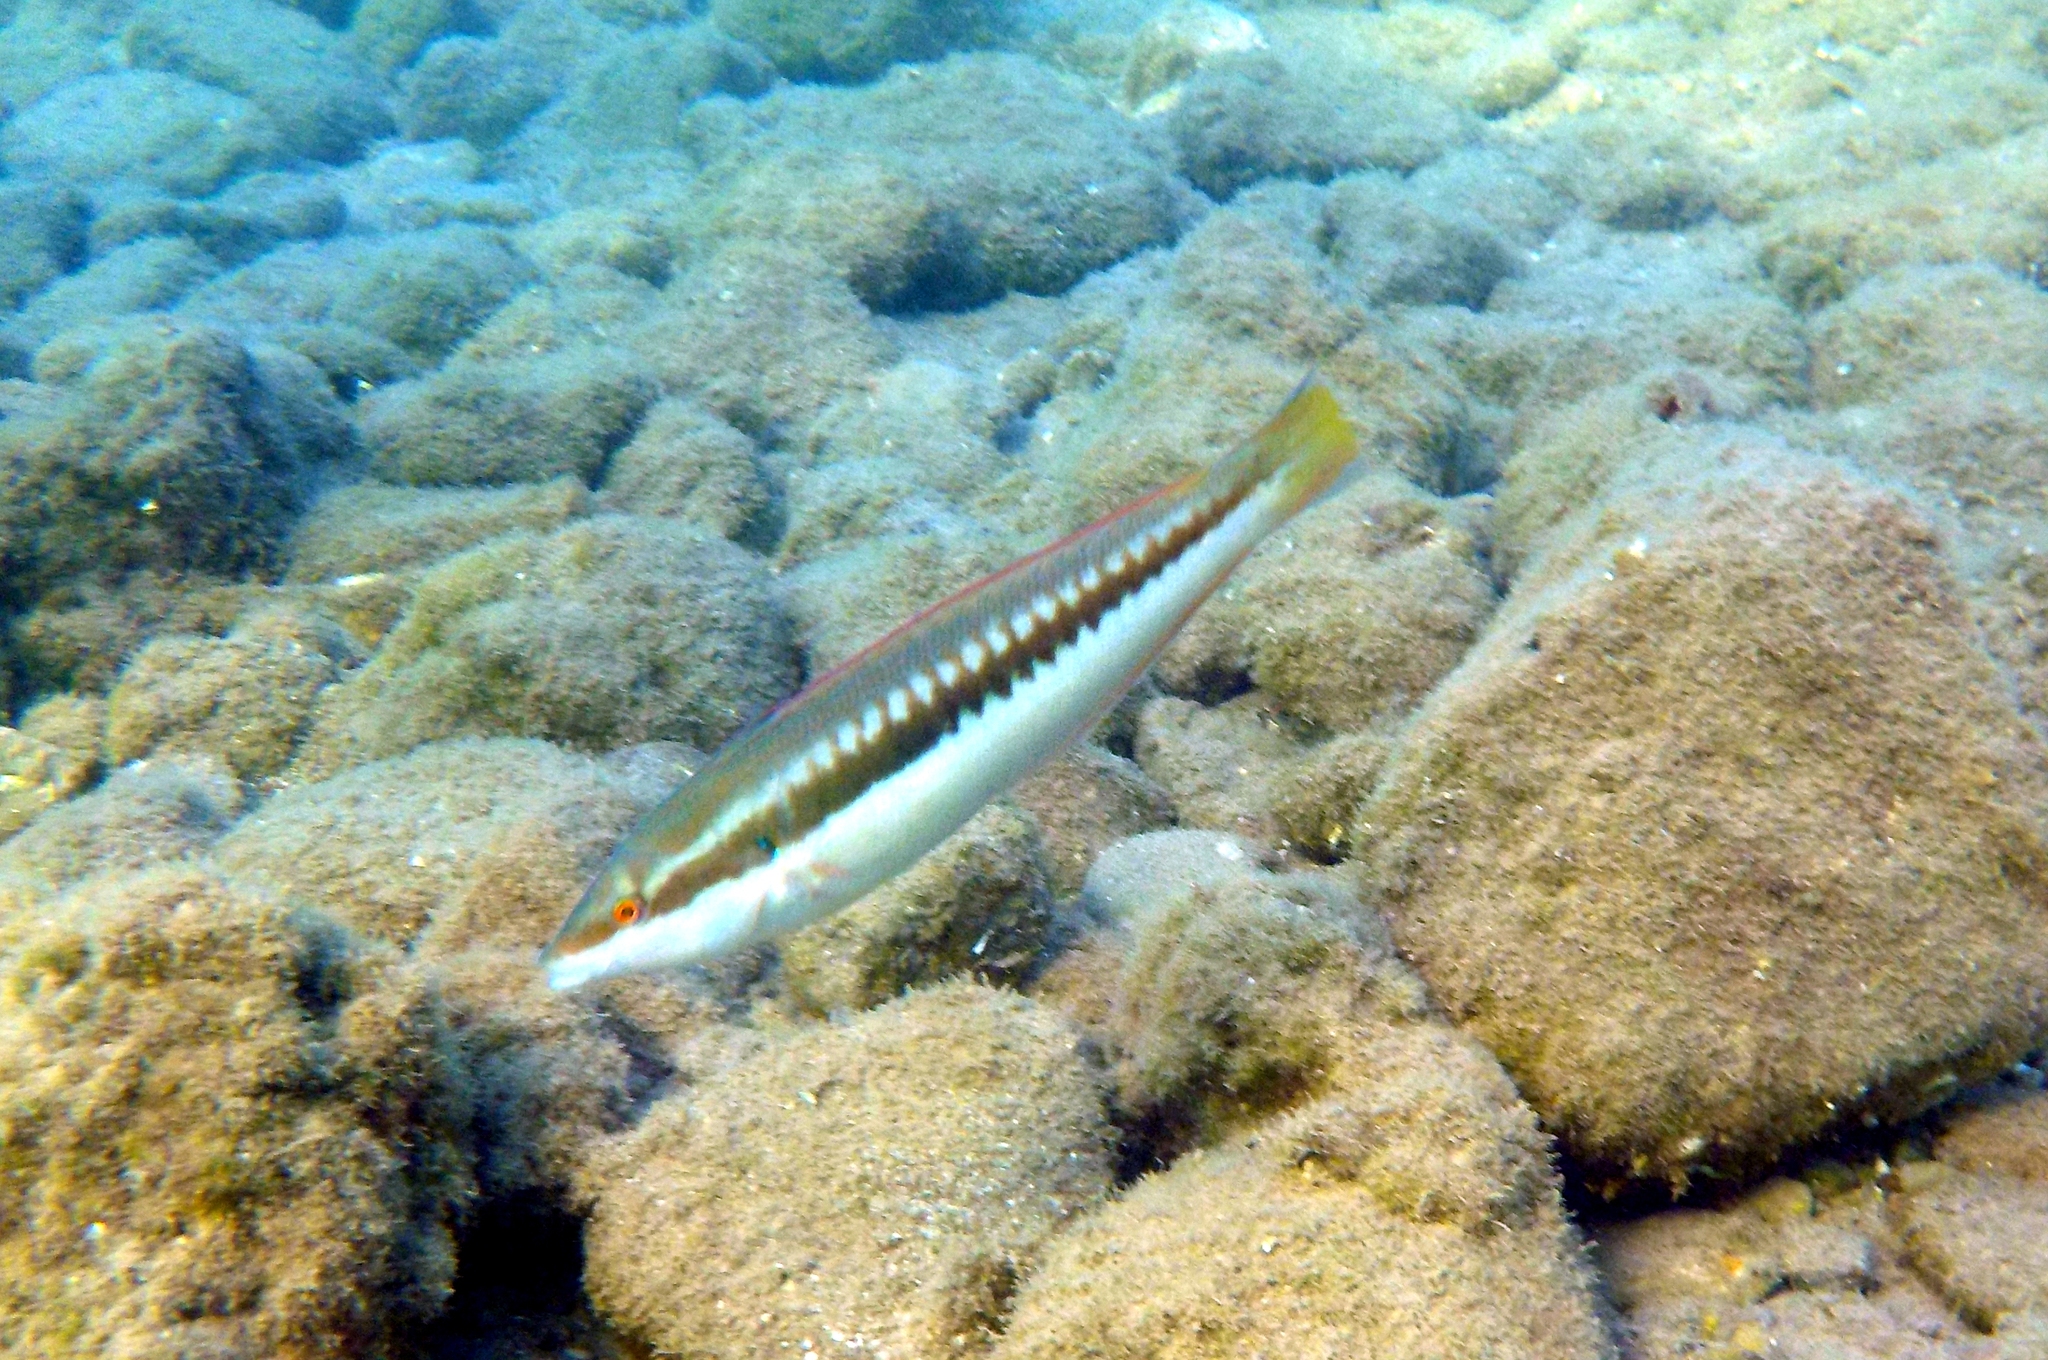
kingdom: Animalia
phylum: Chordata
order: Perciformes
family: Labridae
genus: Coris
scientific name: Coris julis
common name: Rainbow wrasse
